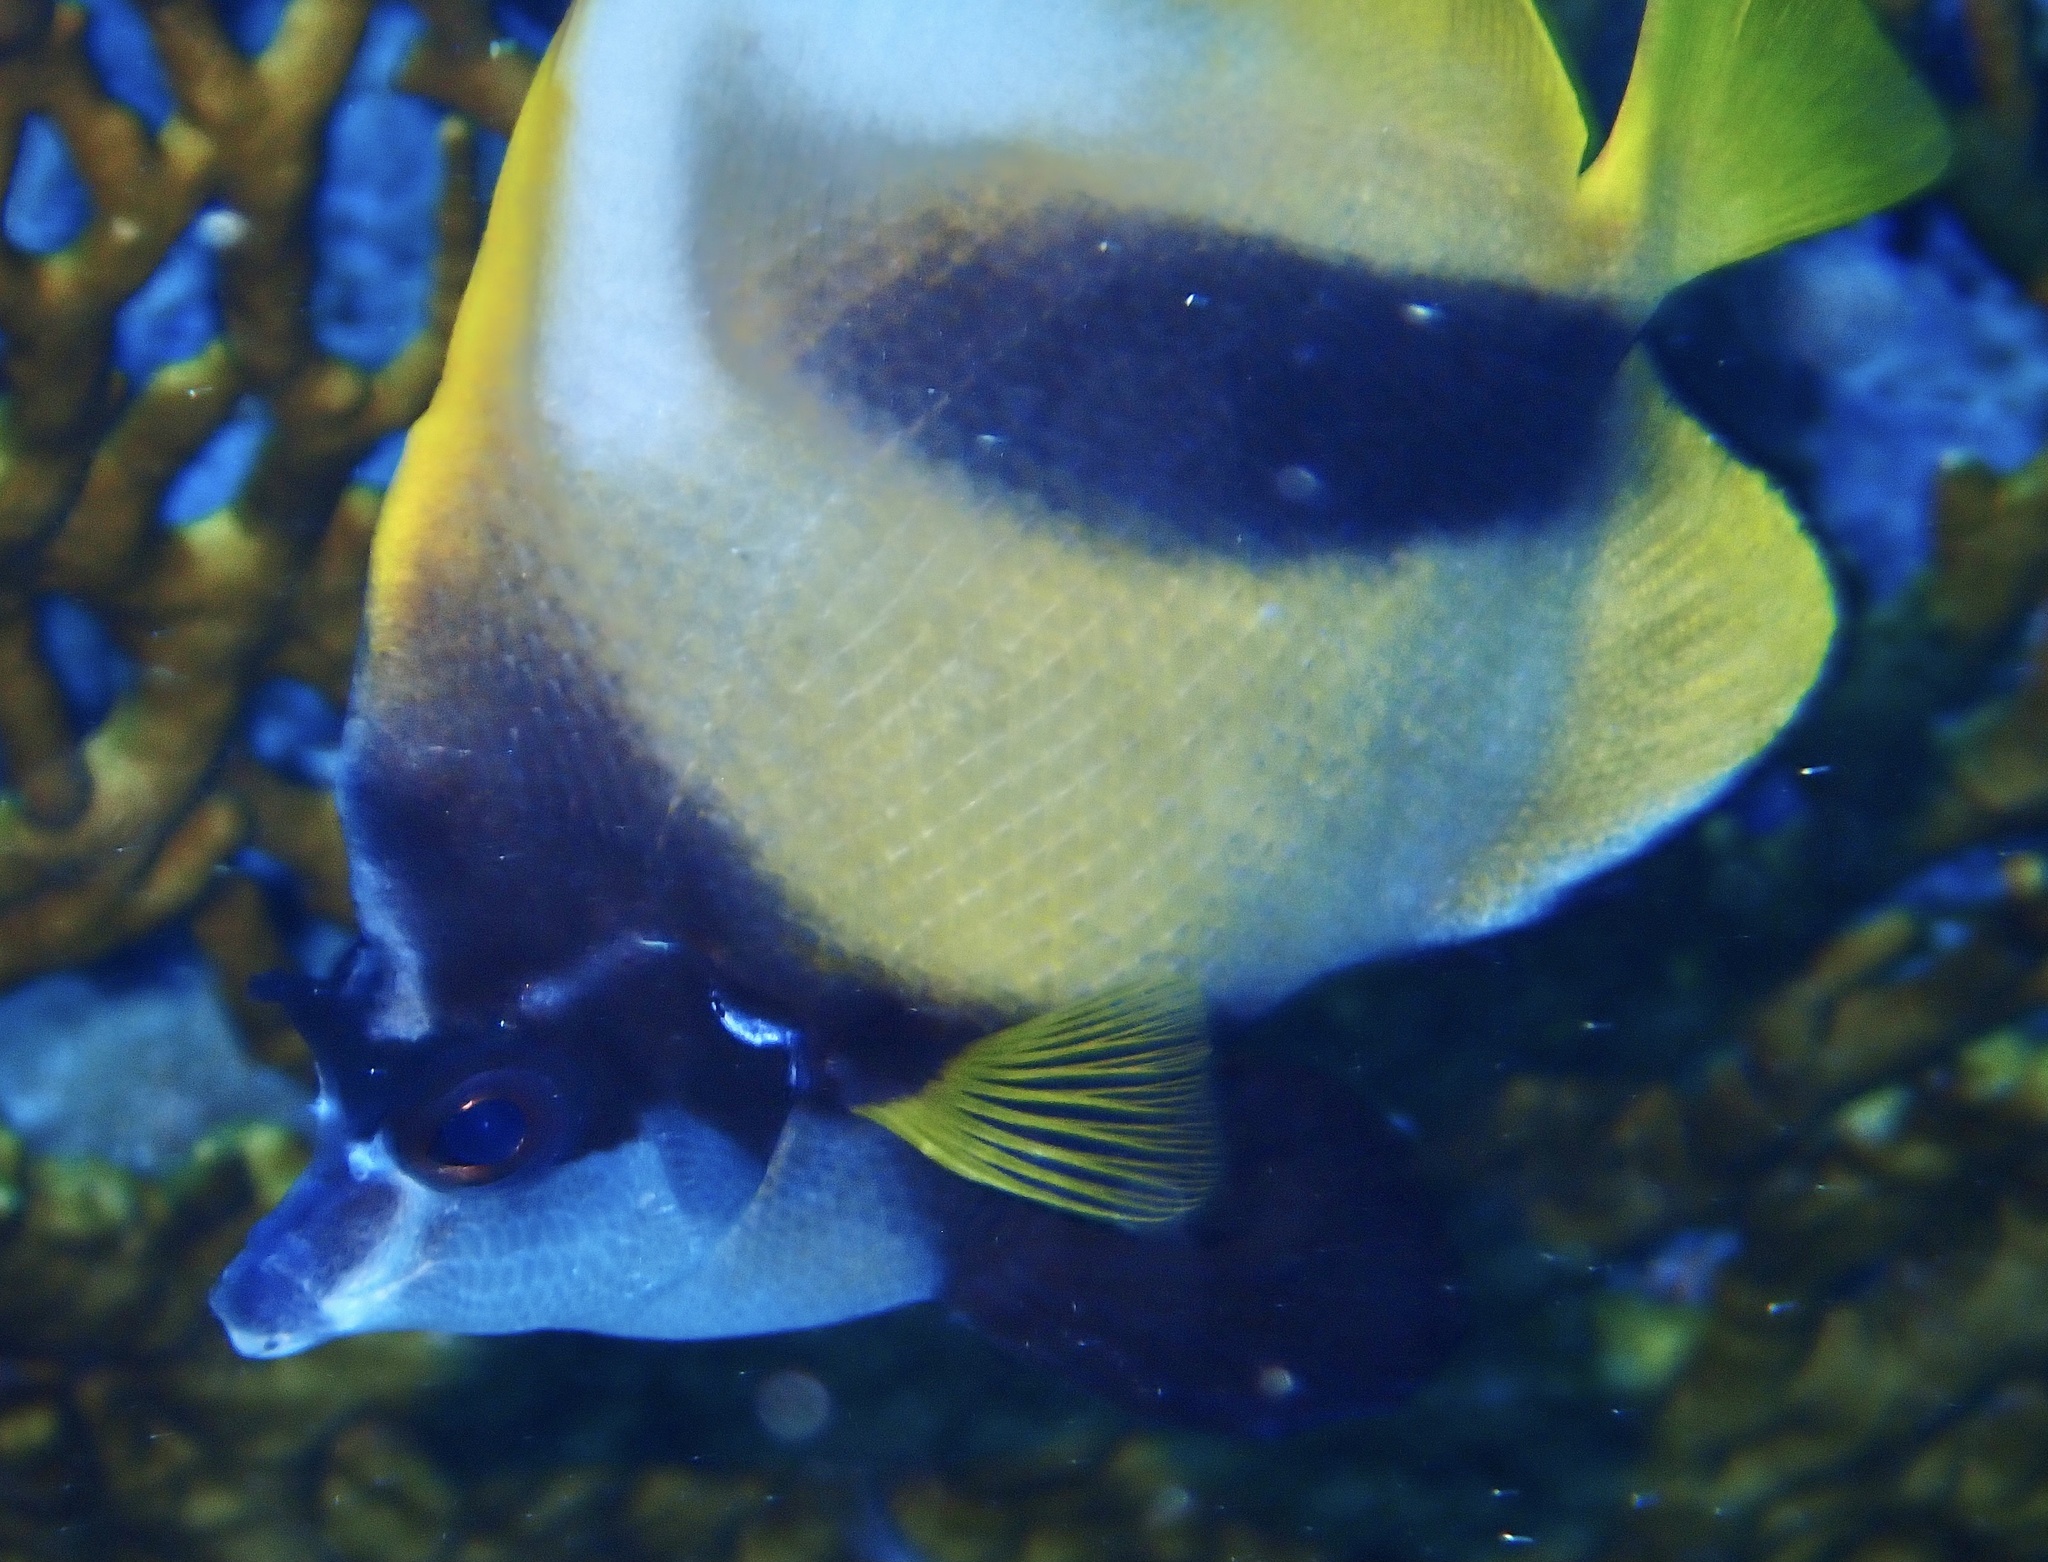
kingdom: Animalia
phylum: Chordata
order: Perciformes
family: Chaetodontidae
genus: Heniochus
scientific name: Heniochus intermedius
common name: Red sea bannerfish
